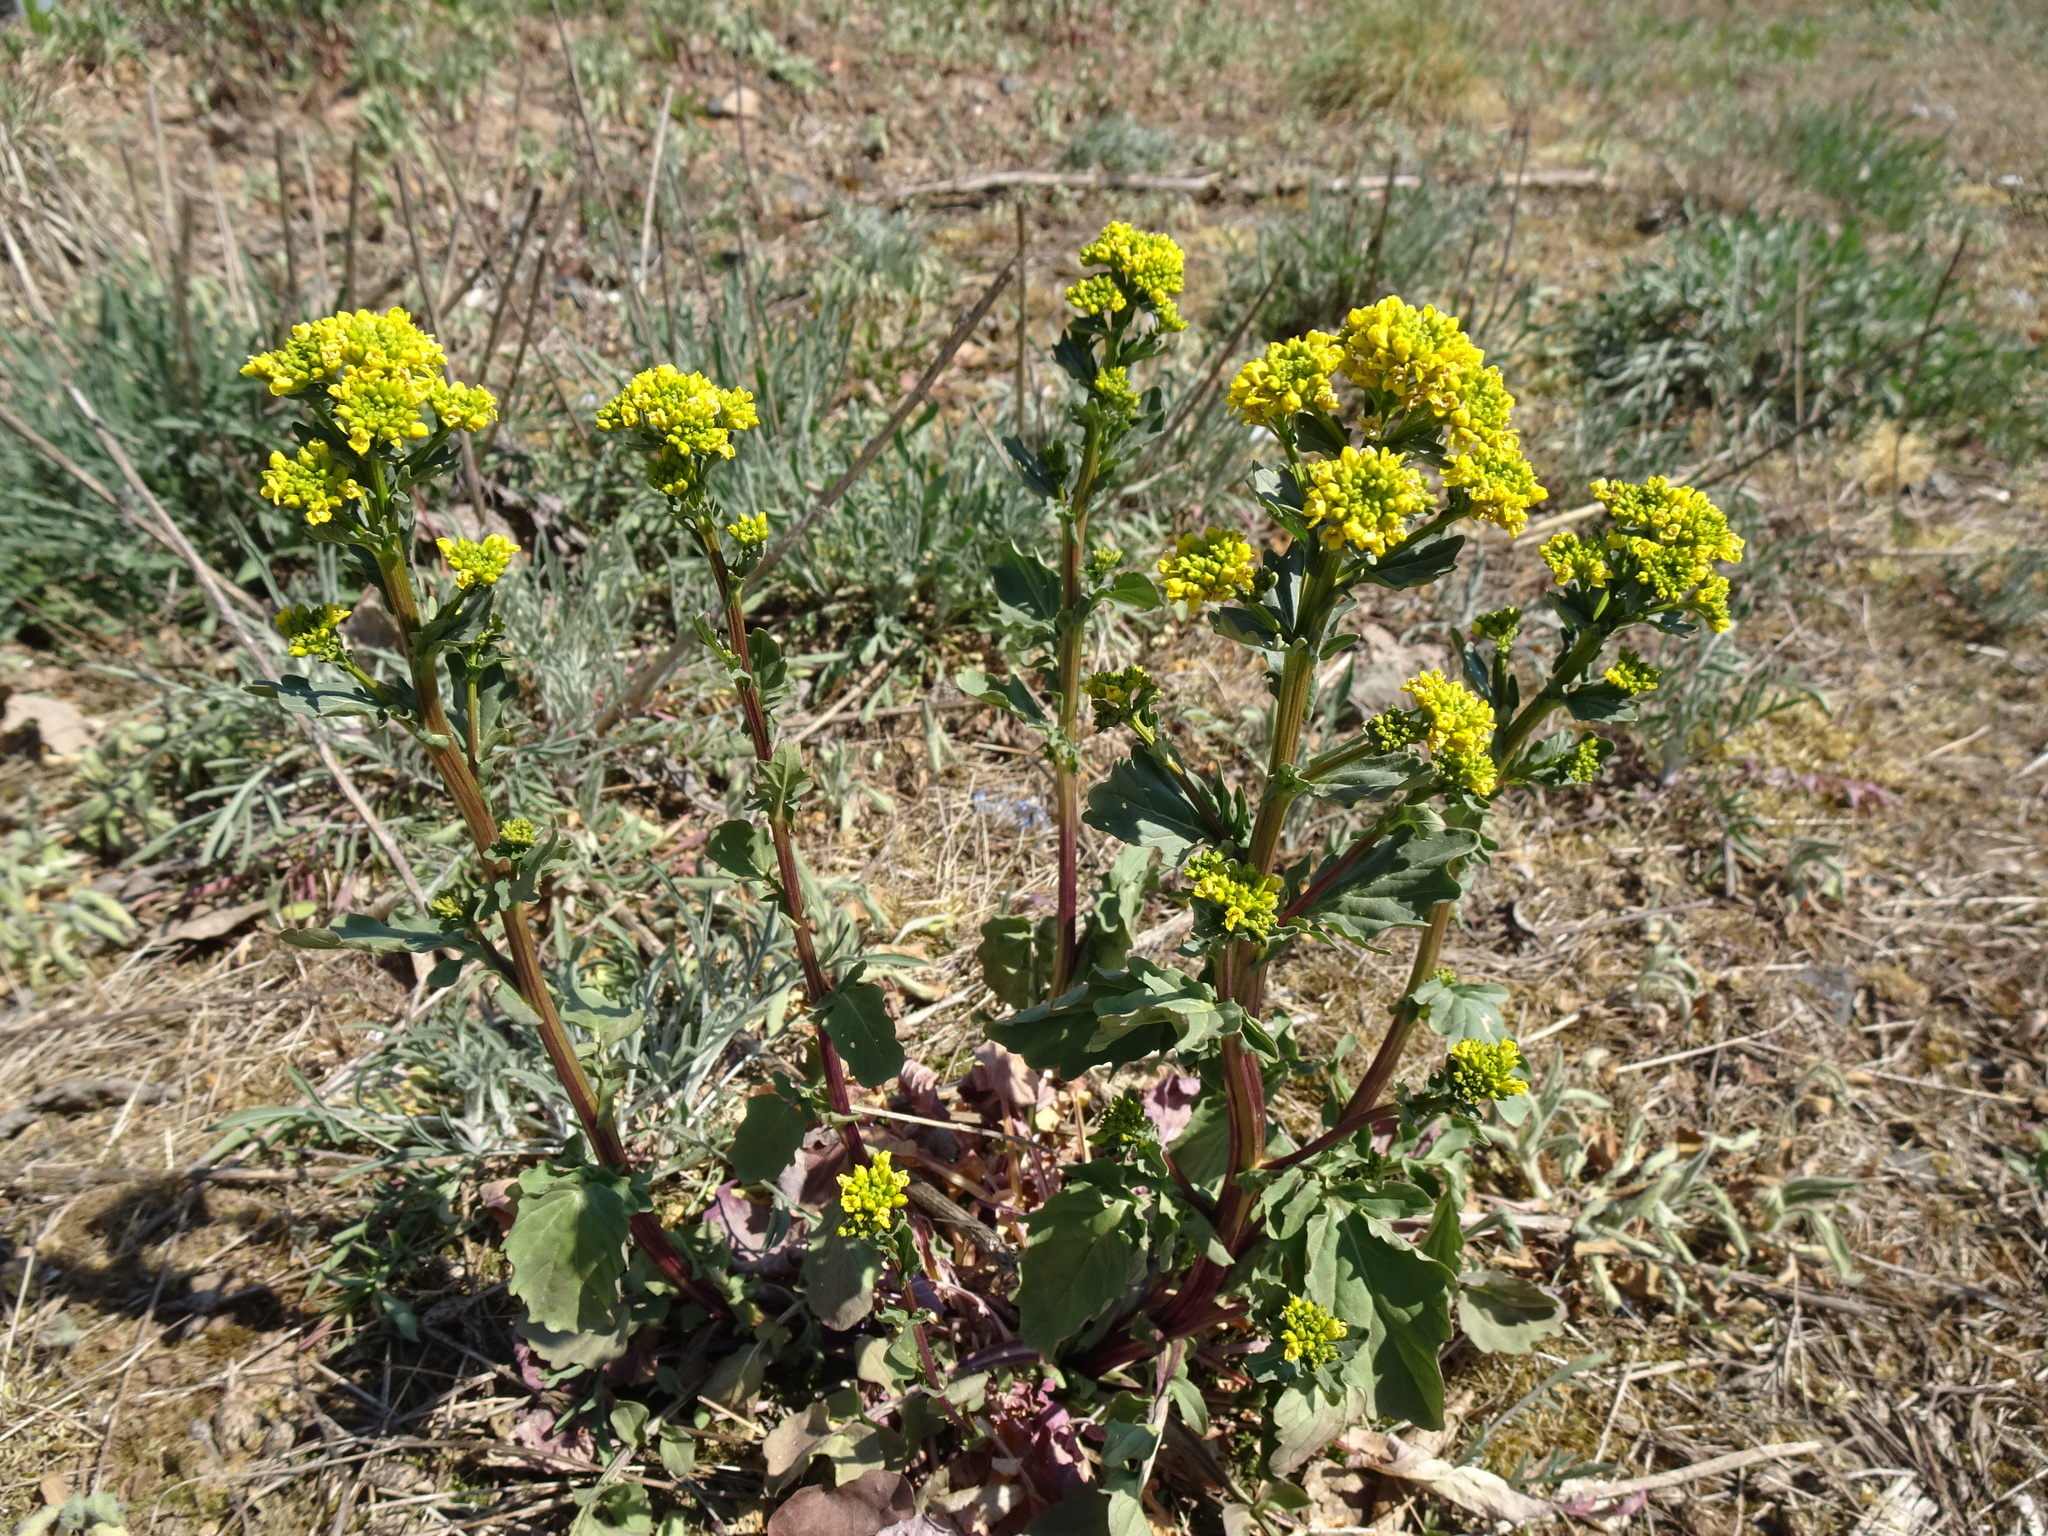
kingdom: Plantae
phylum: Tracheophyta
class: Magnoliopsida
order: Brassicales
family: Brassicaceae
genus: Barbarea
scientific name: Barbarea vulgaris
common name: Cressy-greens
